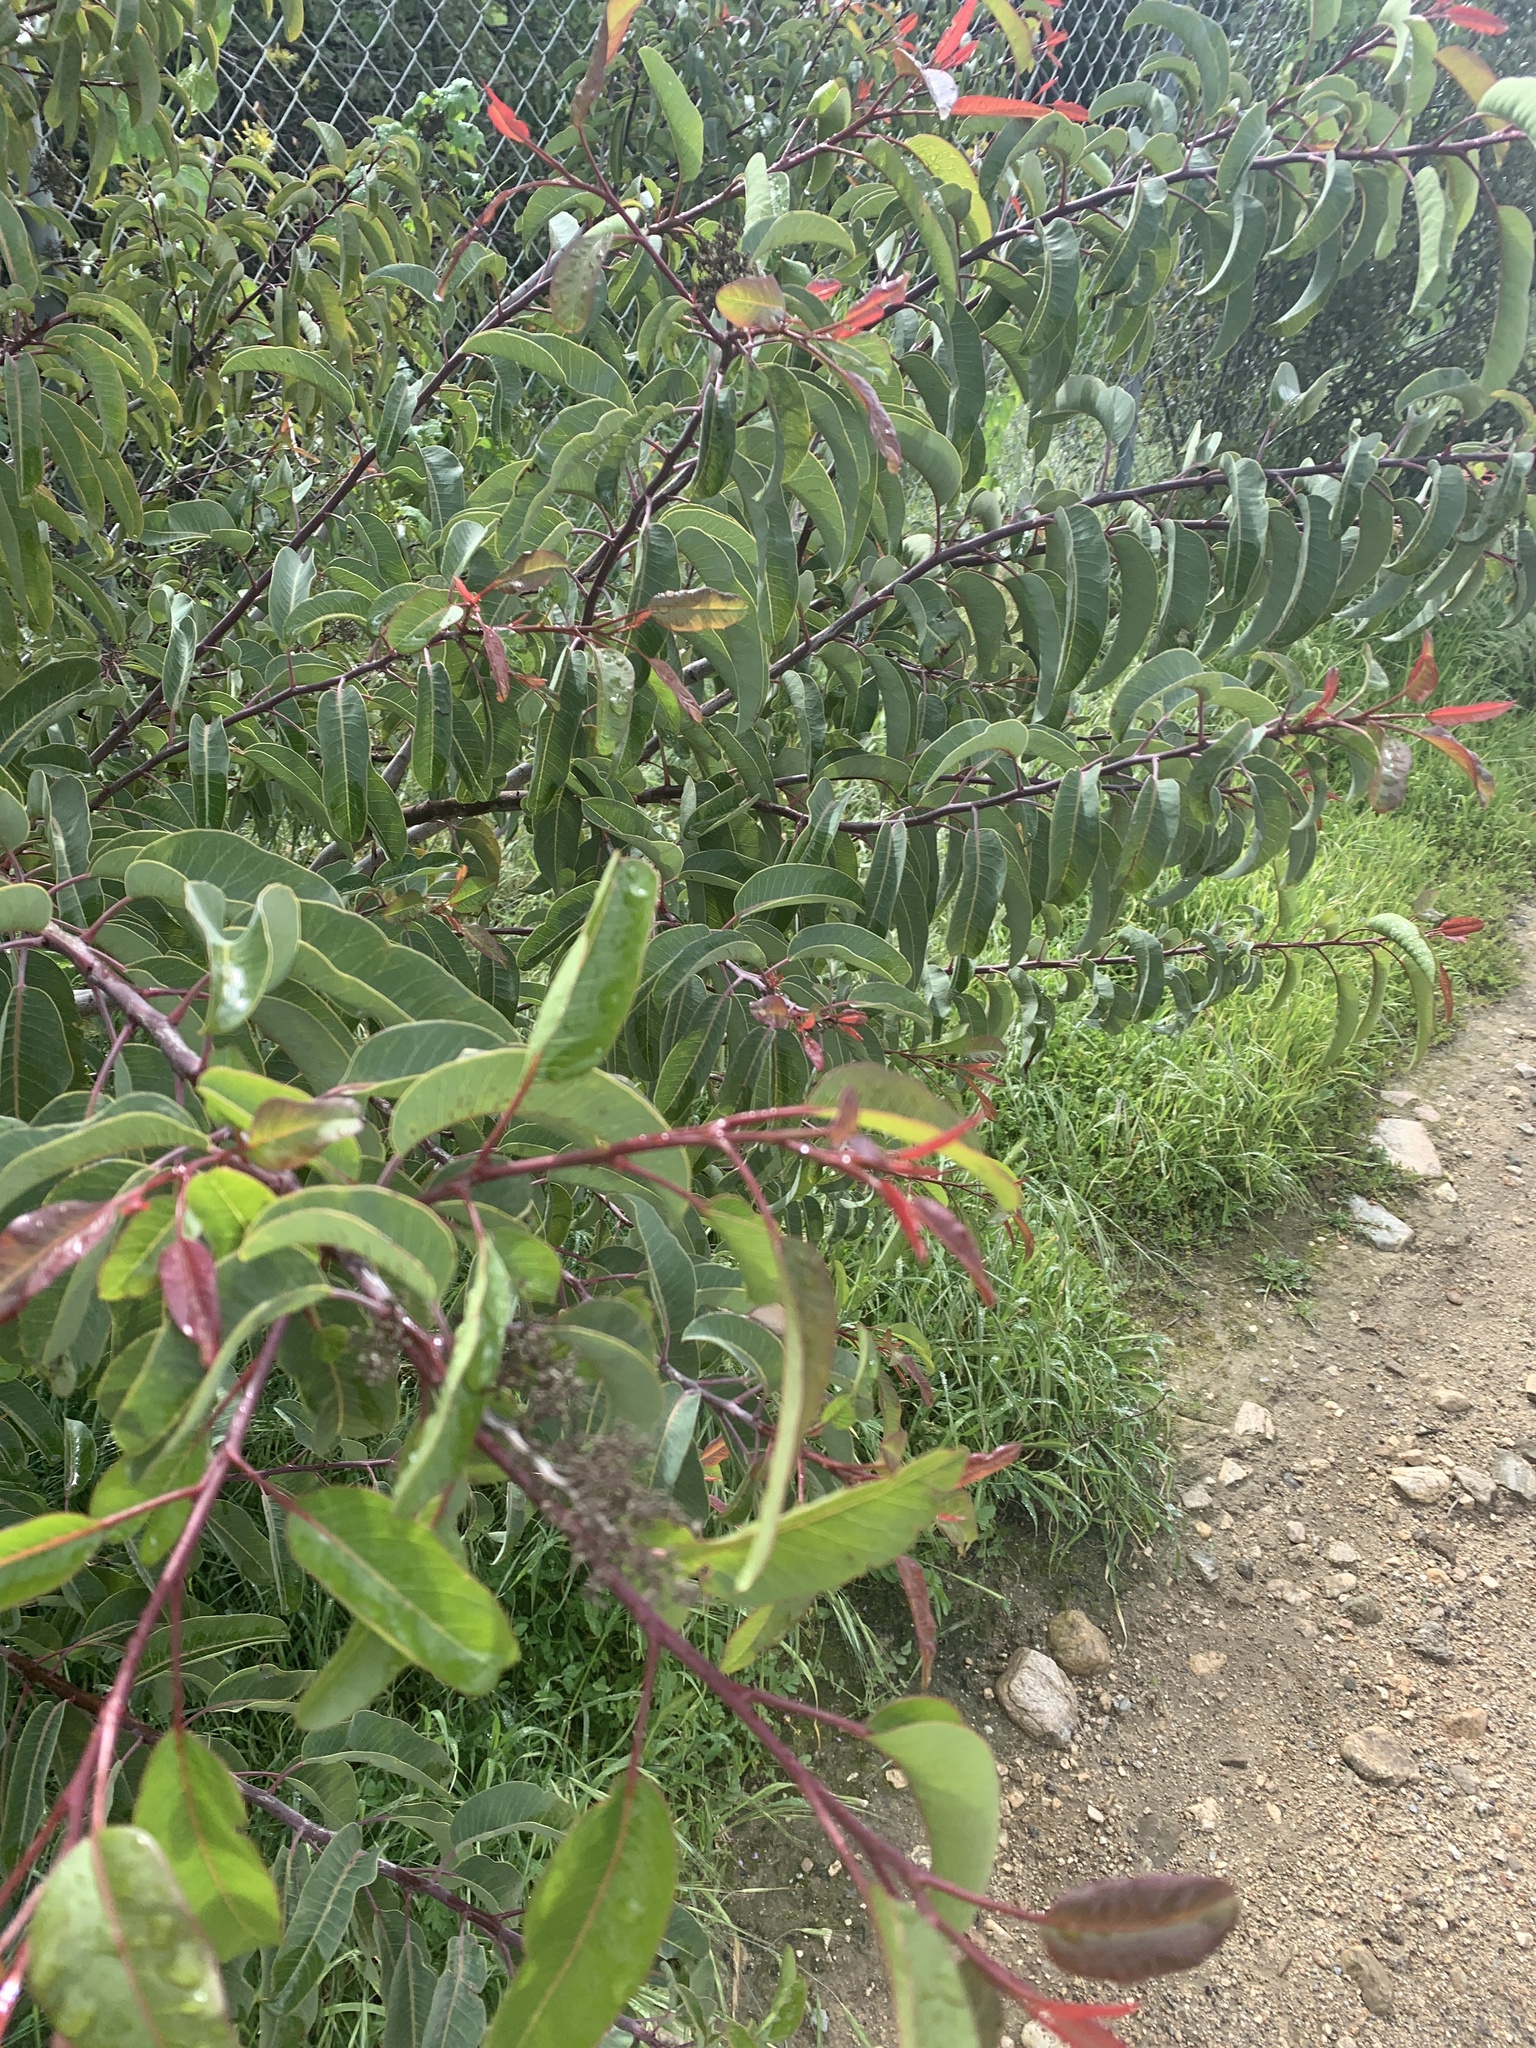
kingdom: Plantae
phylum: Tracheophyta
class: Magnoliopsida
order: Sapindales
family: Anacardiaceae
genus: Malosma
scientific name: Malosma laurina
